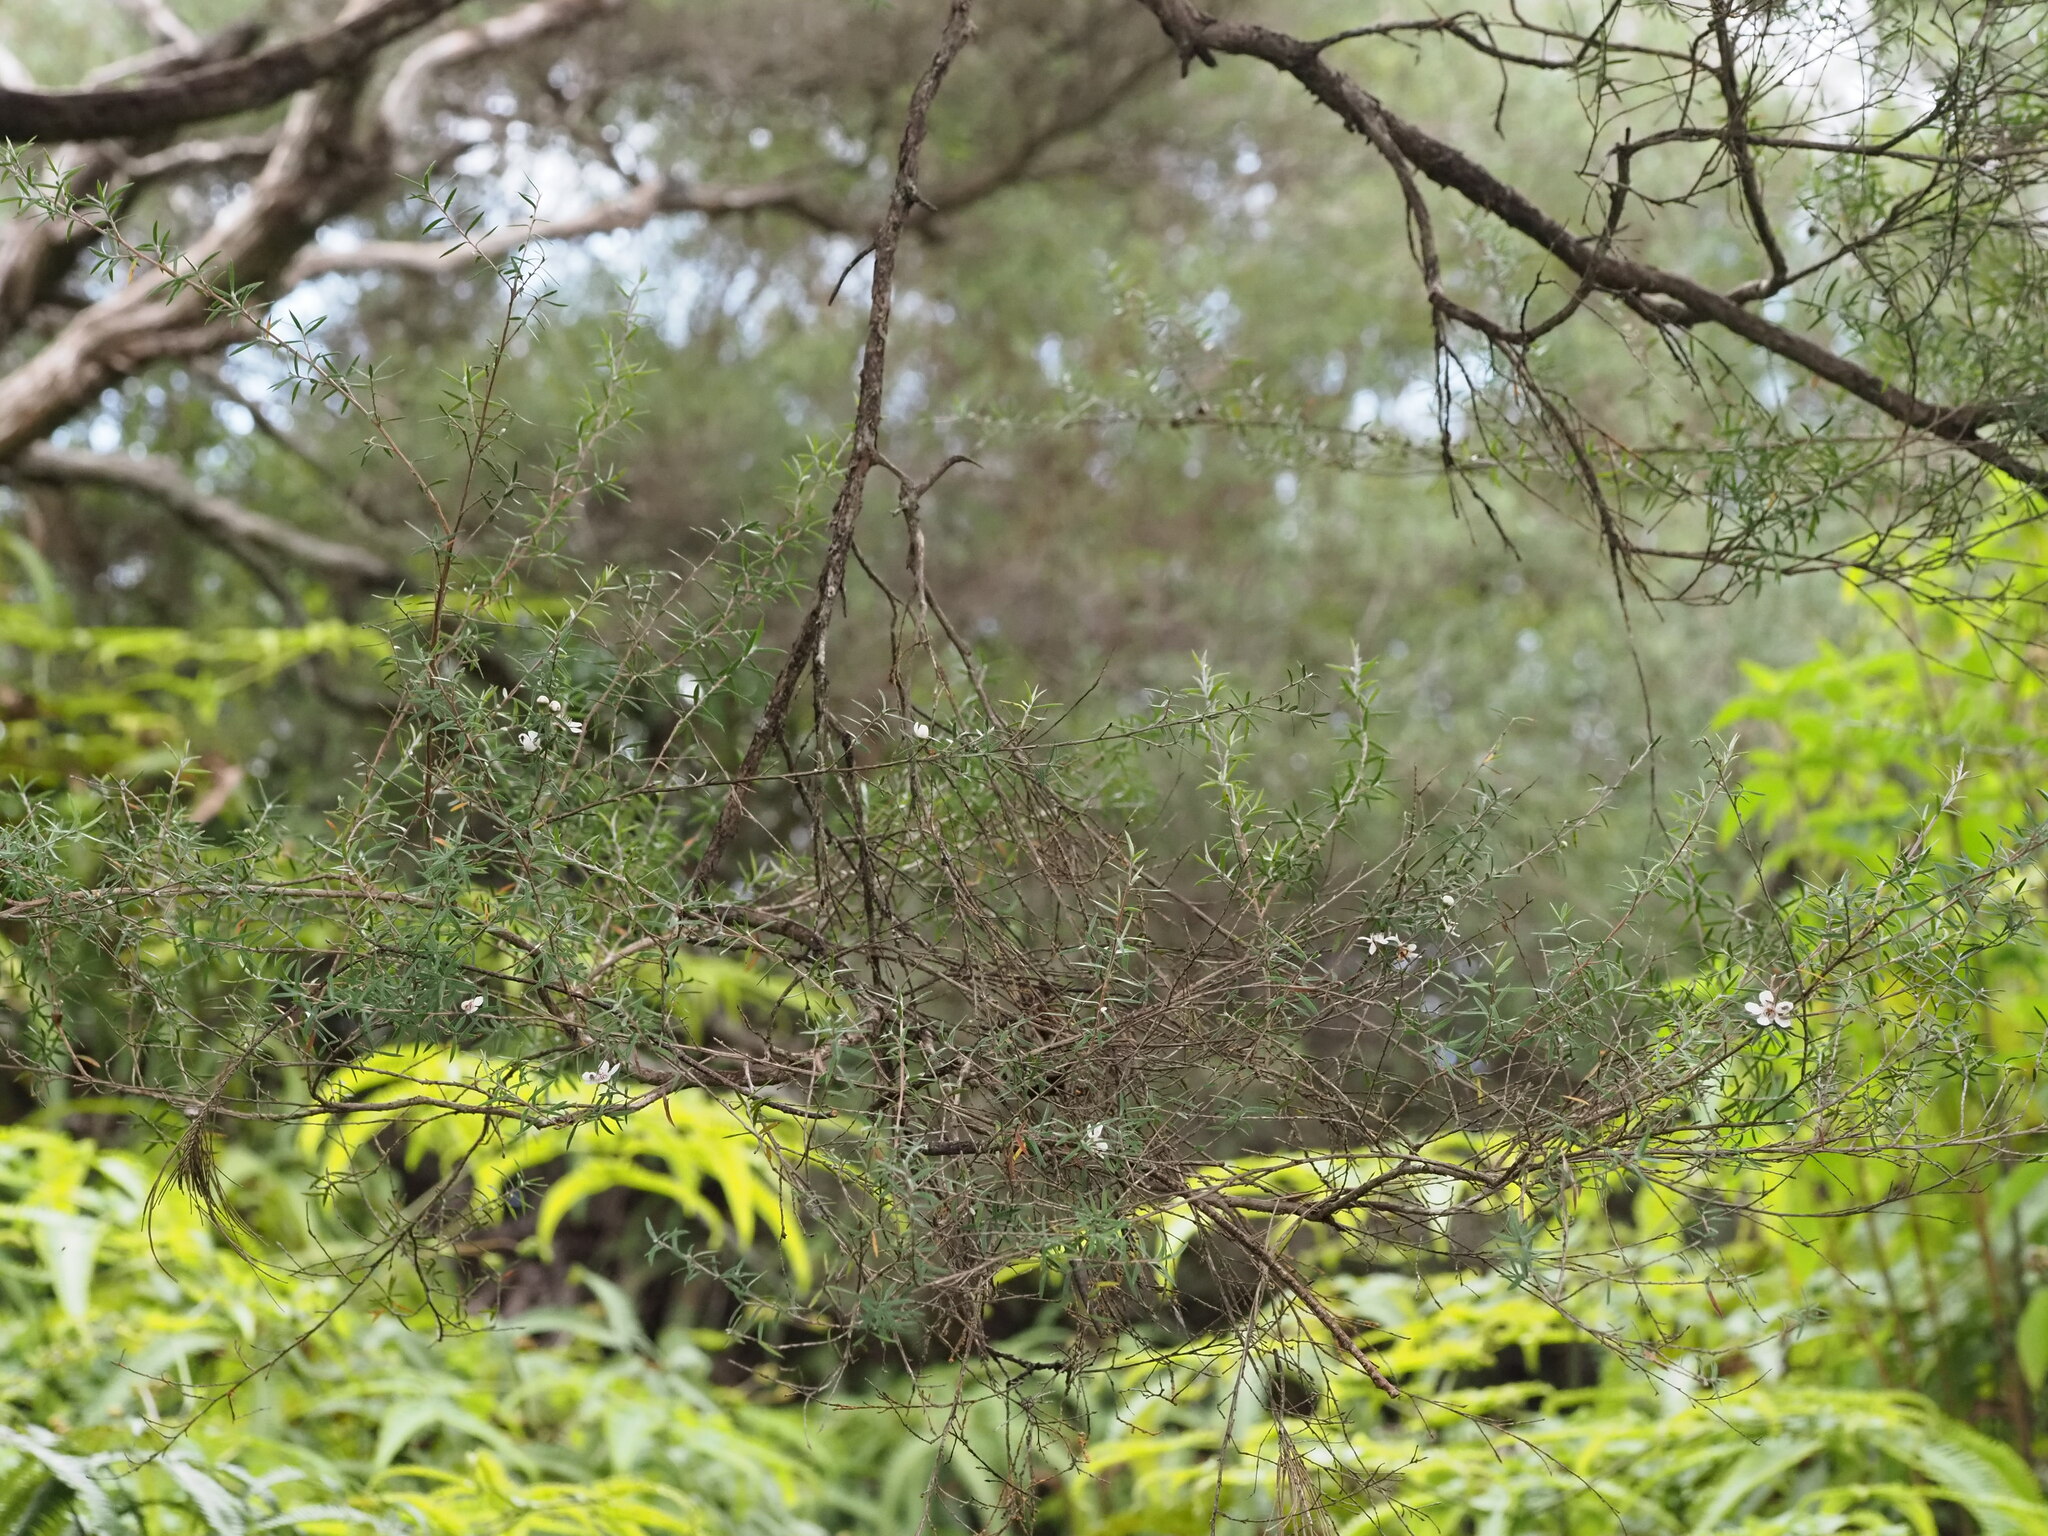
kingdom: Plantae
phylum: Tracheophyta
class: Magnoliopsida
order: Myrtales
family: Myrtaceae
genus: Leptospermum
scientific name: Leptospermum scoparium
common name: Broom tea-tree
